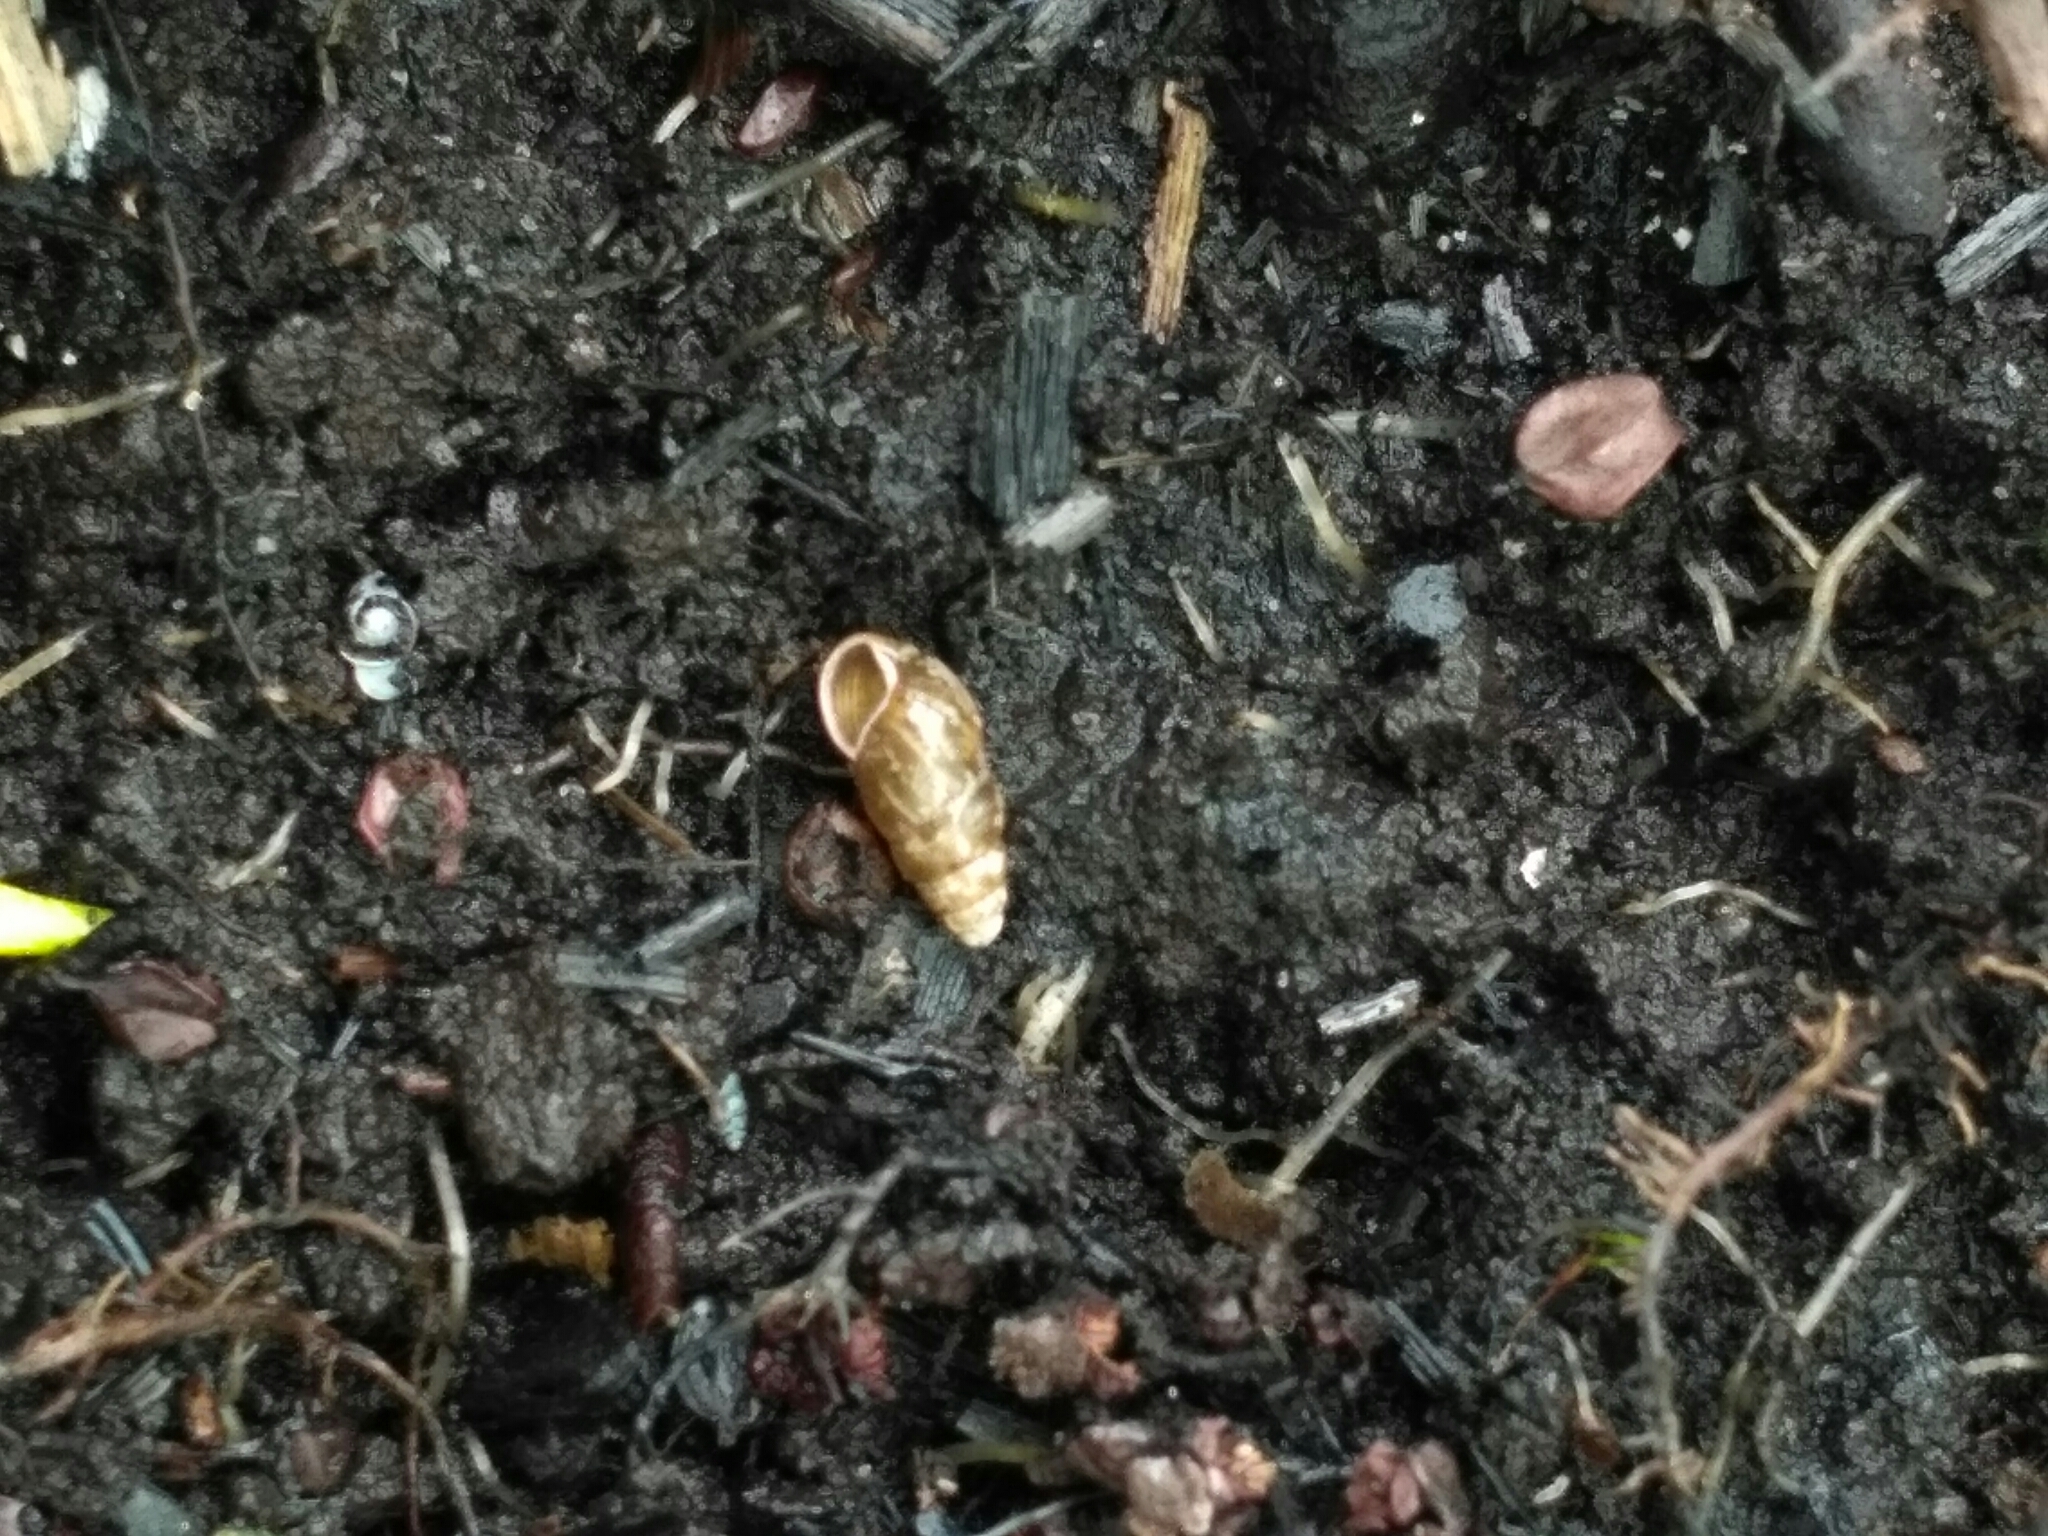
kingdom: Animalia
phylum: Mollusca
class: Gastropoda
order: Stylommatophora
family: Cochlicopidae
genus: Cochlicopa
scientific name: Cochlicopa lubrica
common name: Glossy pillar snail
